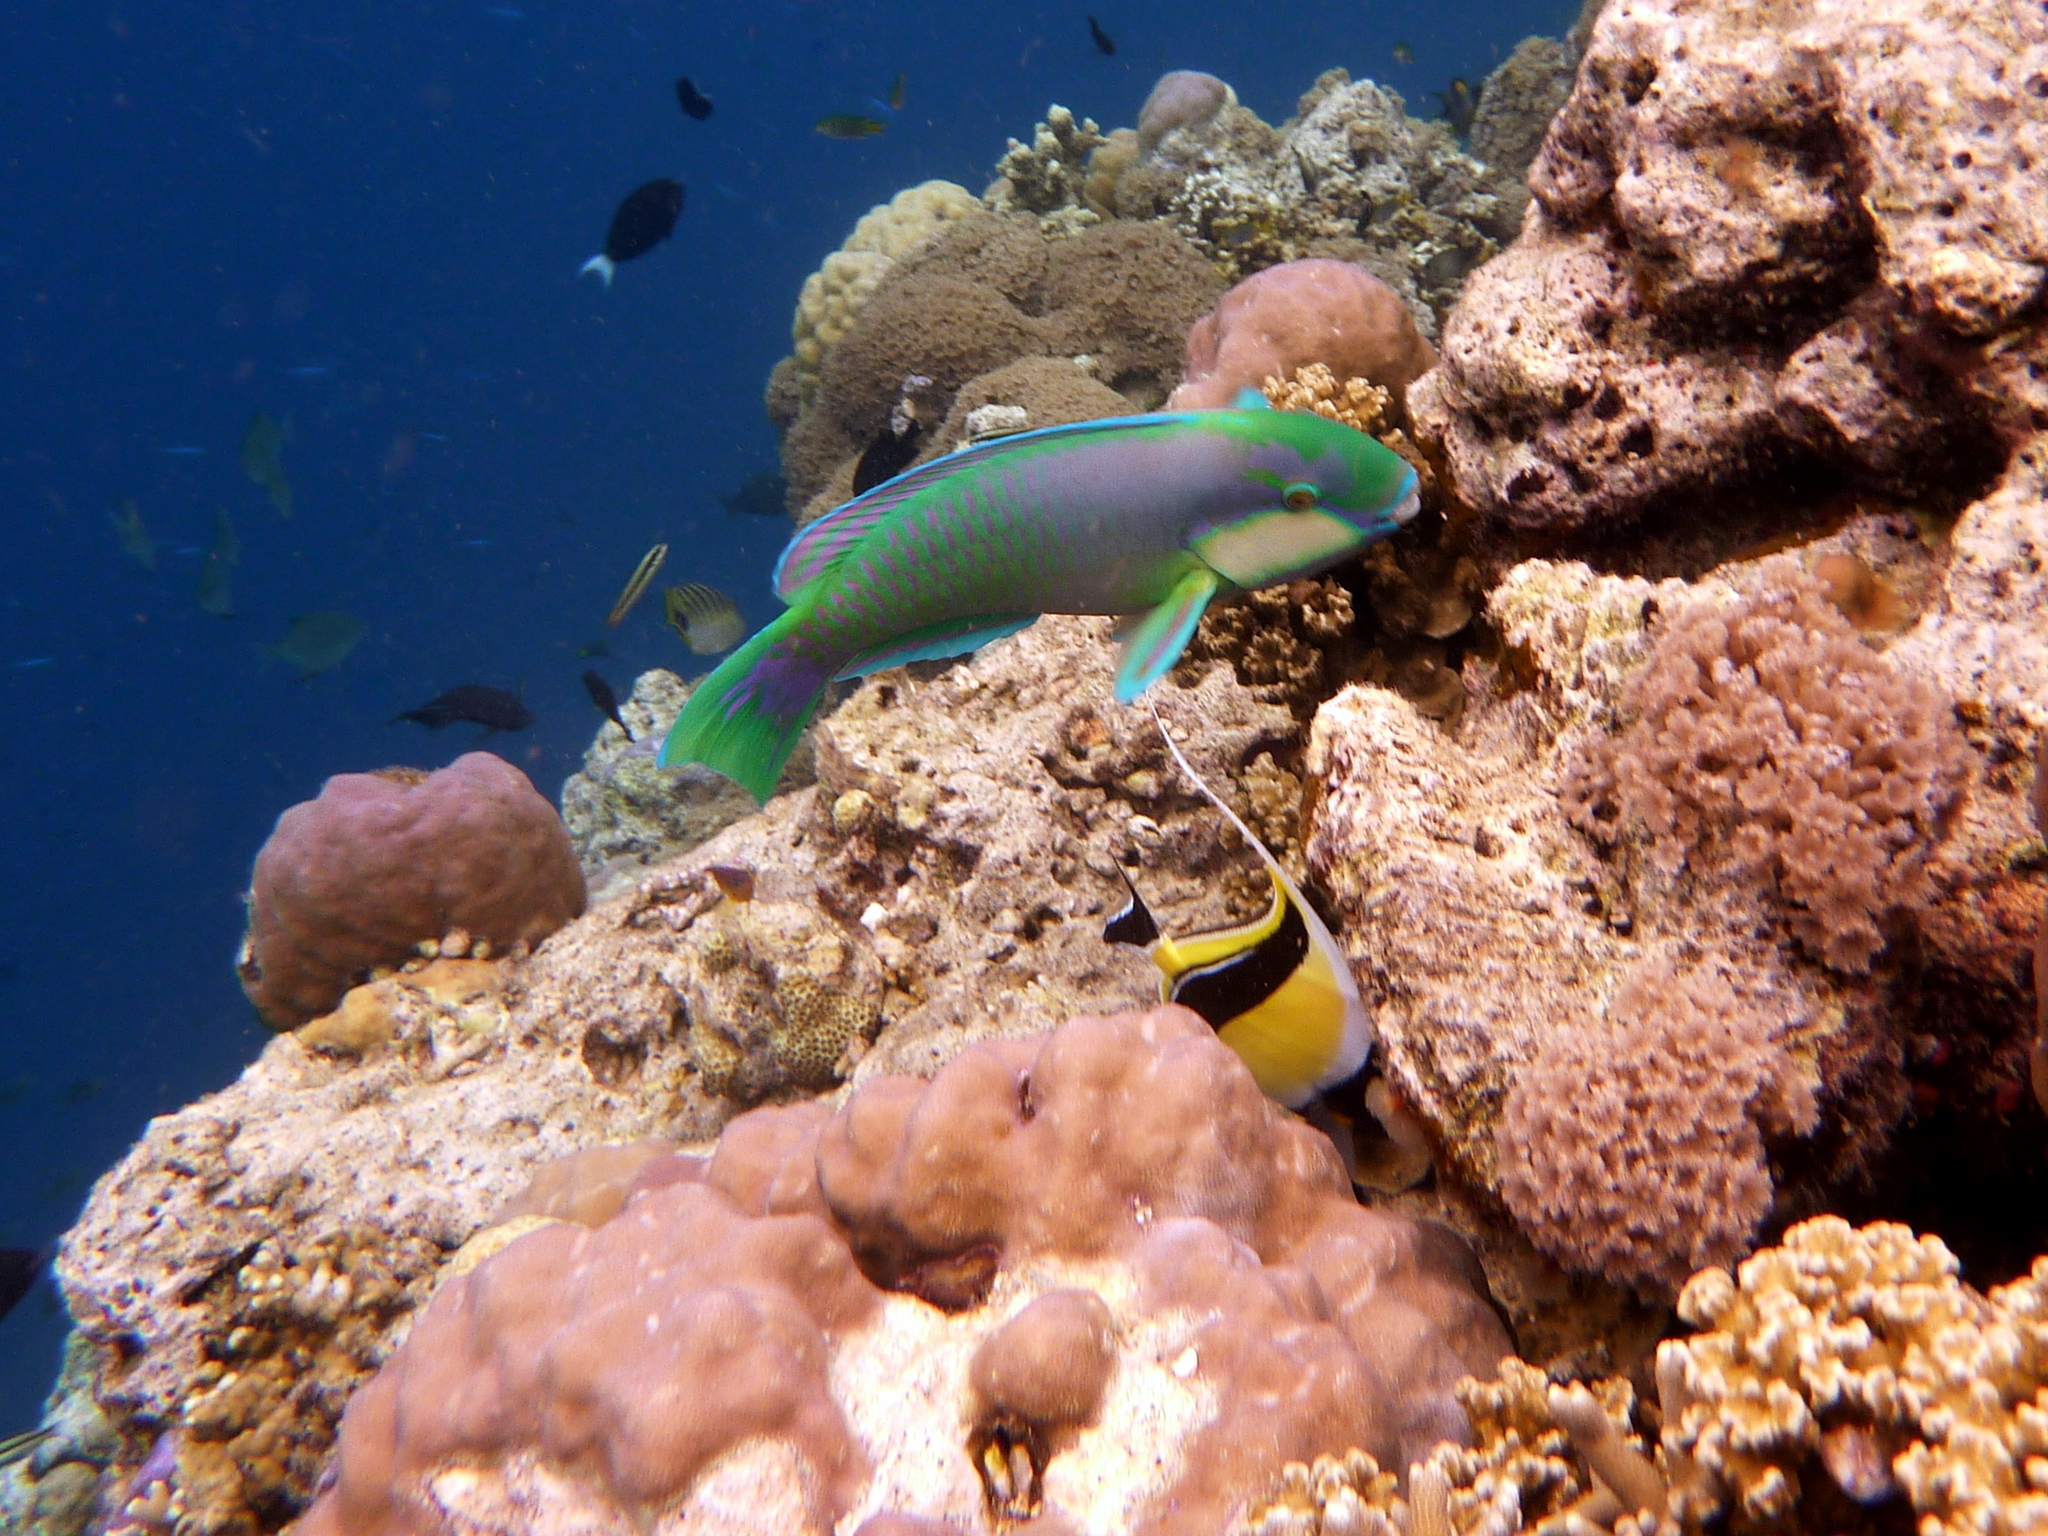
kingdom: Animalia
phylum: Chordata
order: Perciformes
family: Scaridae
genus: Chlorurus
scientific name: Chlorurus bleekeri
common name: Bleeker's parrotfish
